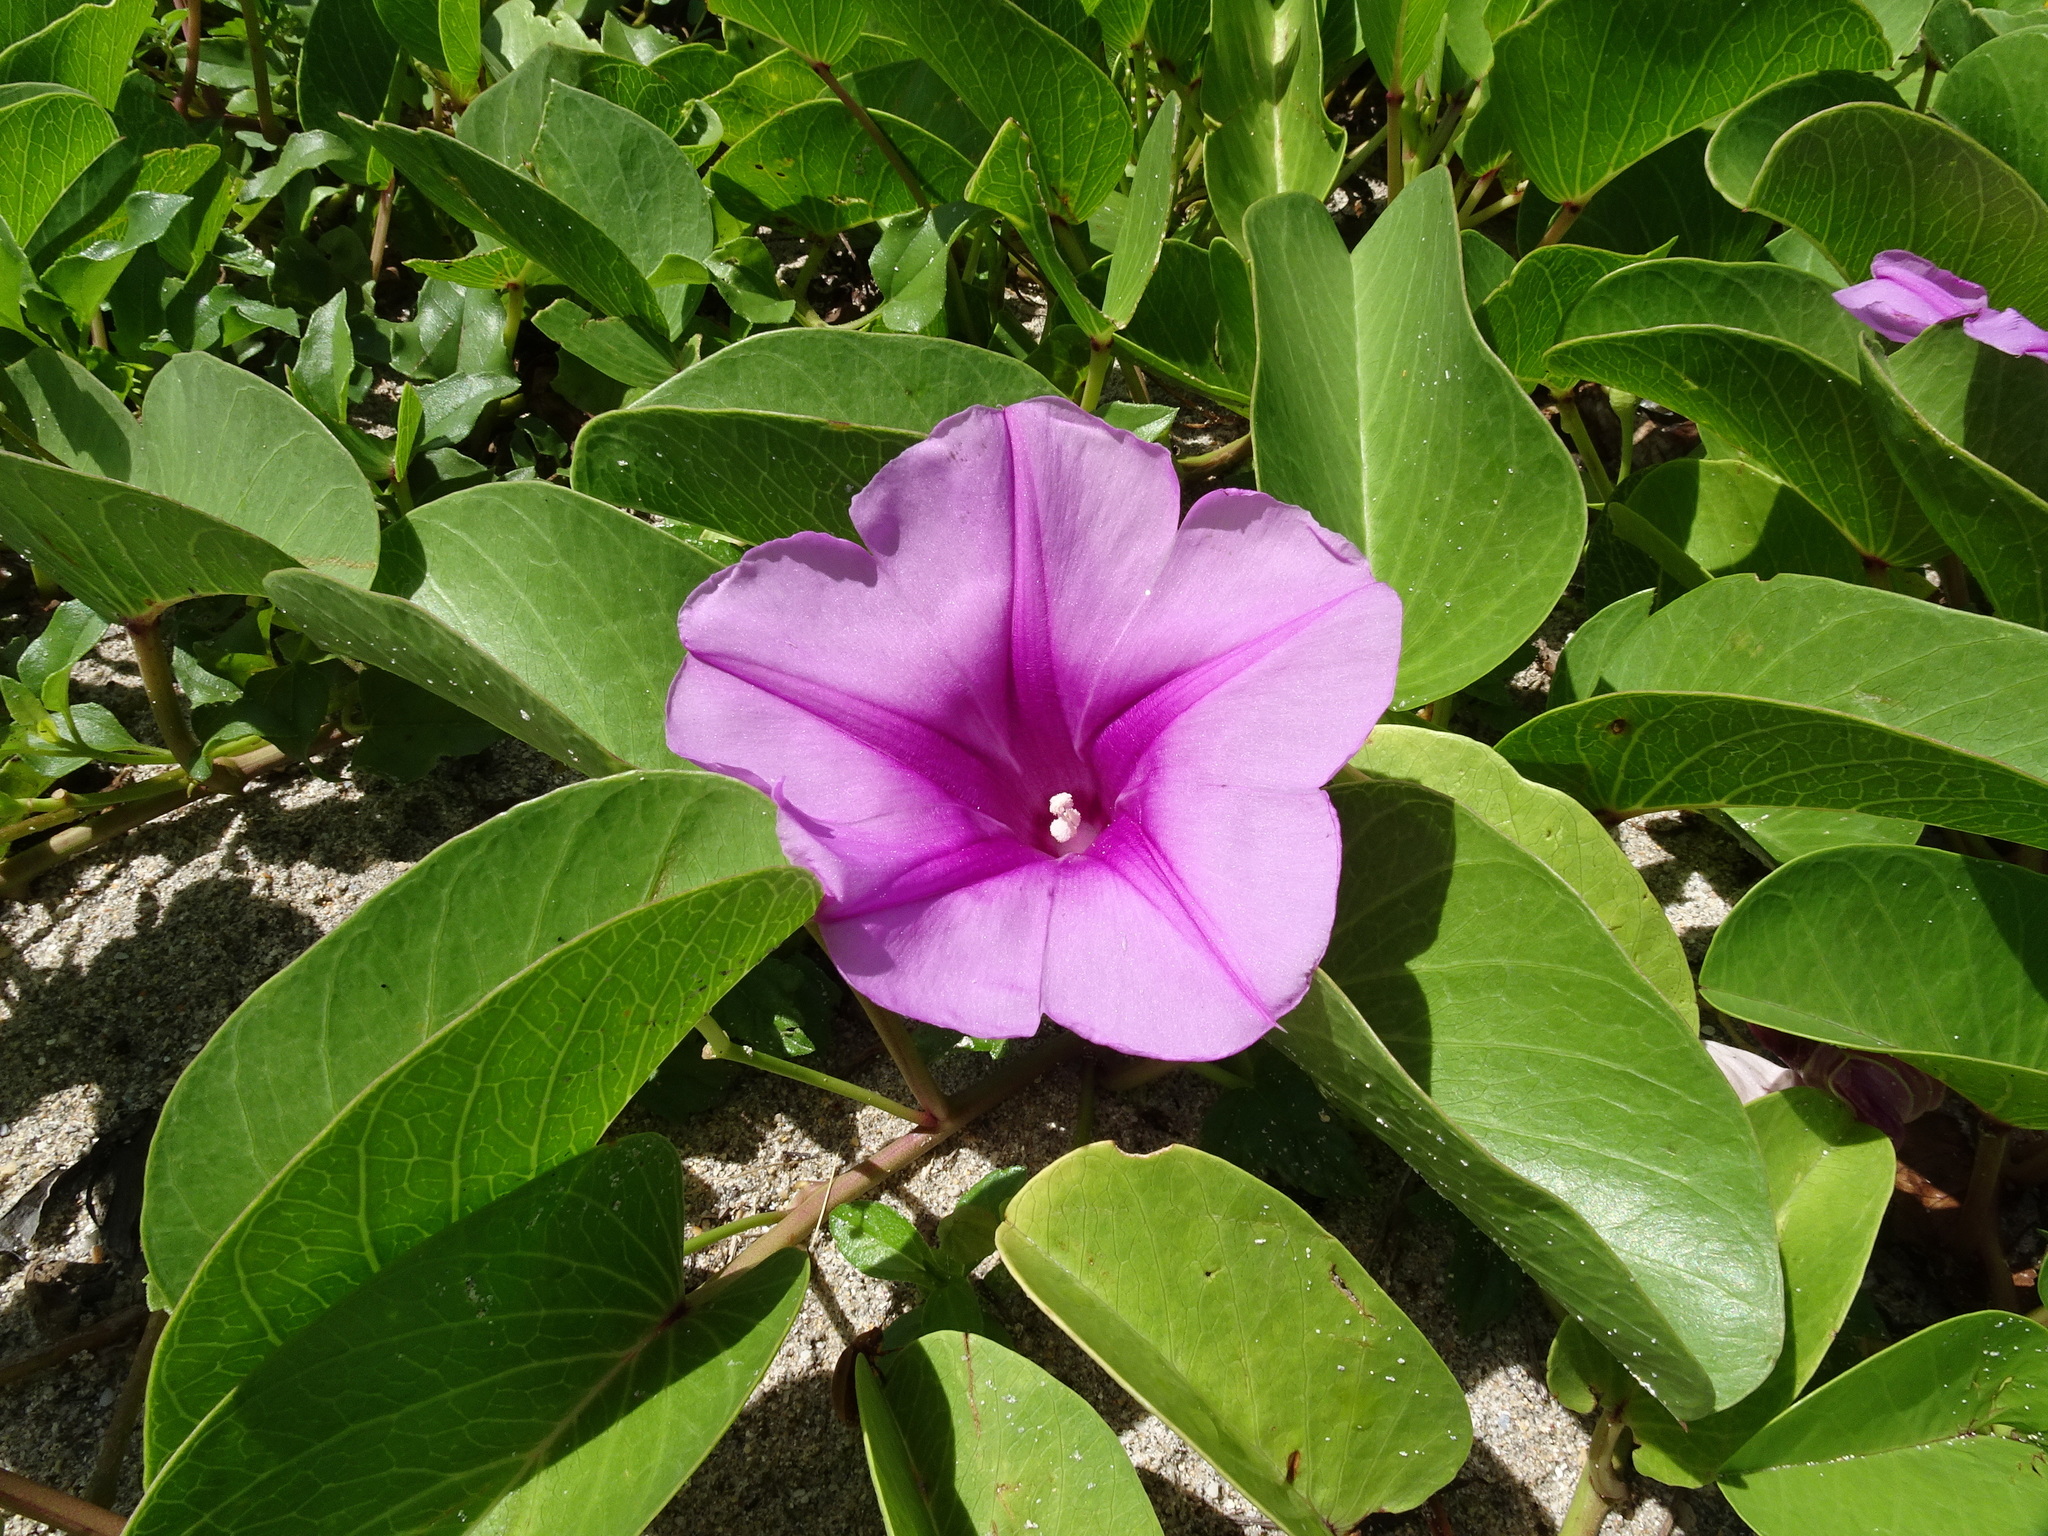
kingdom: Plantae
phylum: Tracheophyta
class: Magnoliopsida
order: Solanales
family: Convolvulaceae
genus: Ipomoea
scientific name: Ipomoea pes-caprae
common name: Beach morning glory
